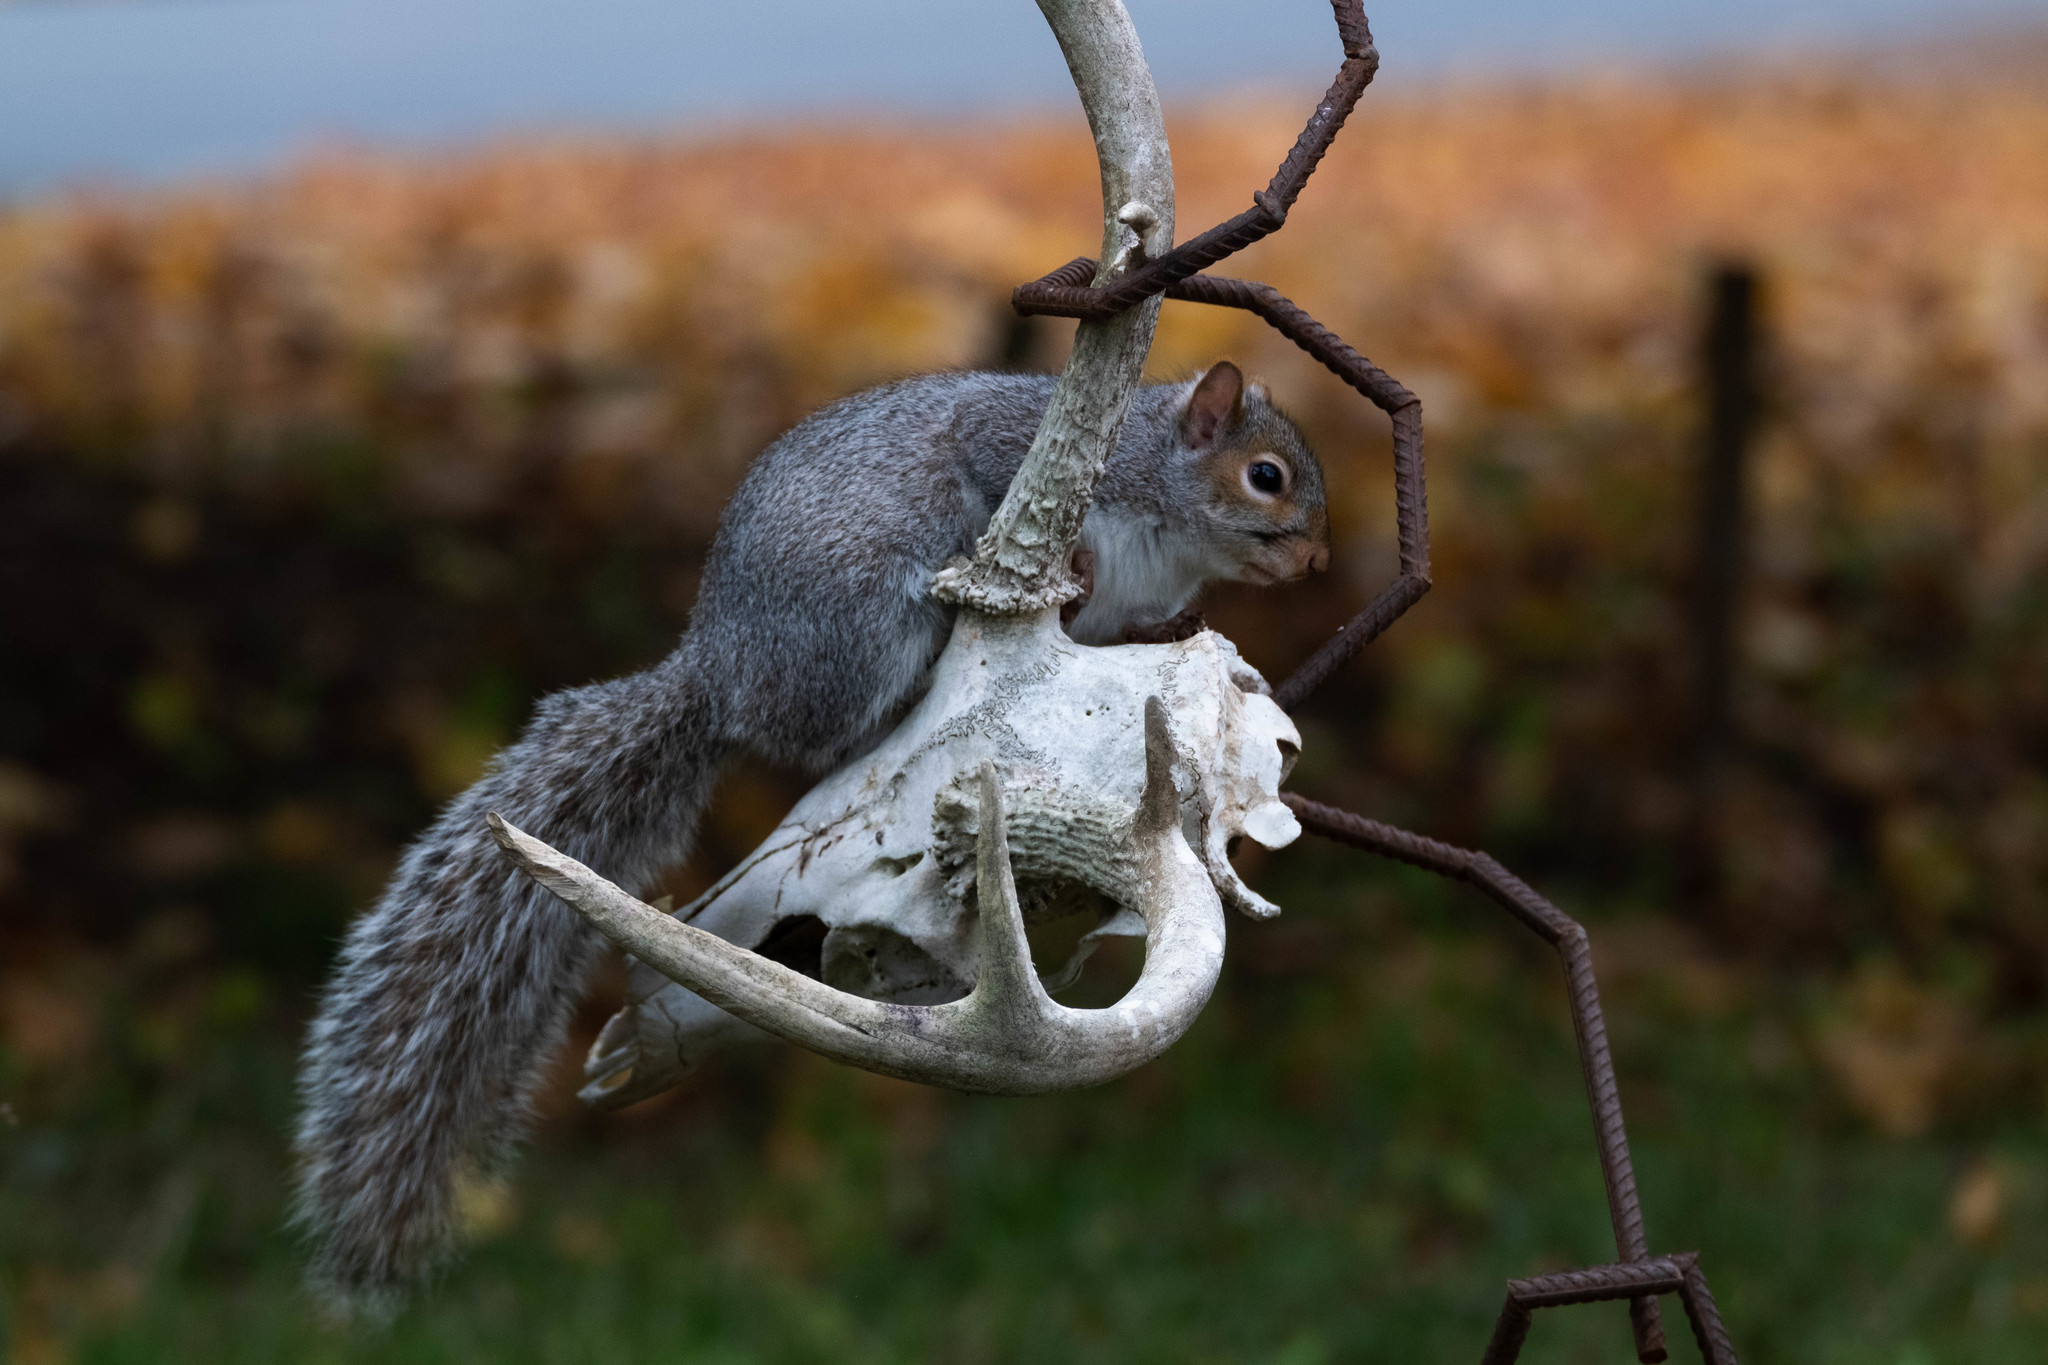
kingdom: Animalia
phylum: Chordata
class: Mammalia
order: Artiodactyla
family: Cervidae
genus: Odocoileus
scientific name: Odocoileus virginianus
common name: White-tailed deer
